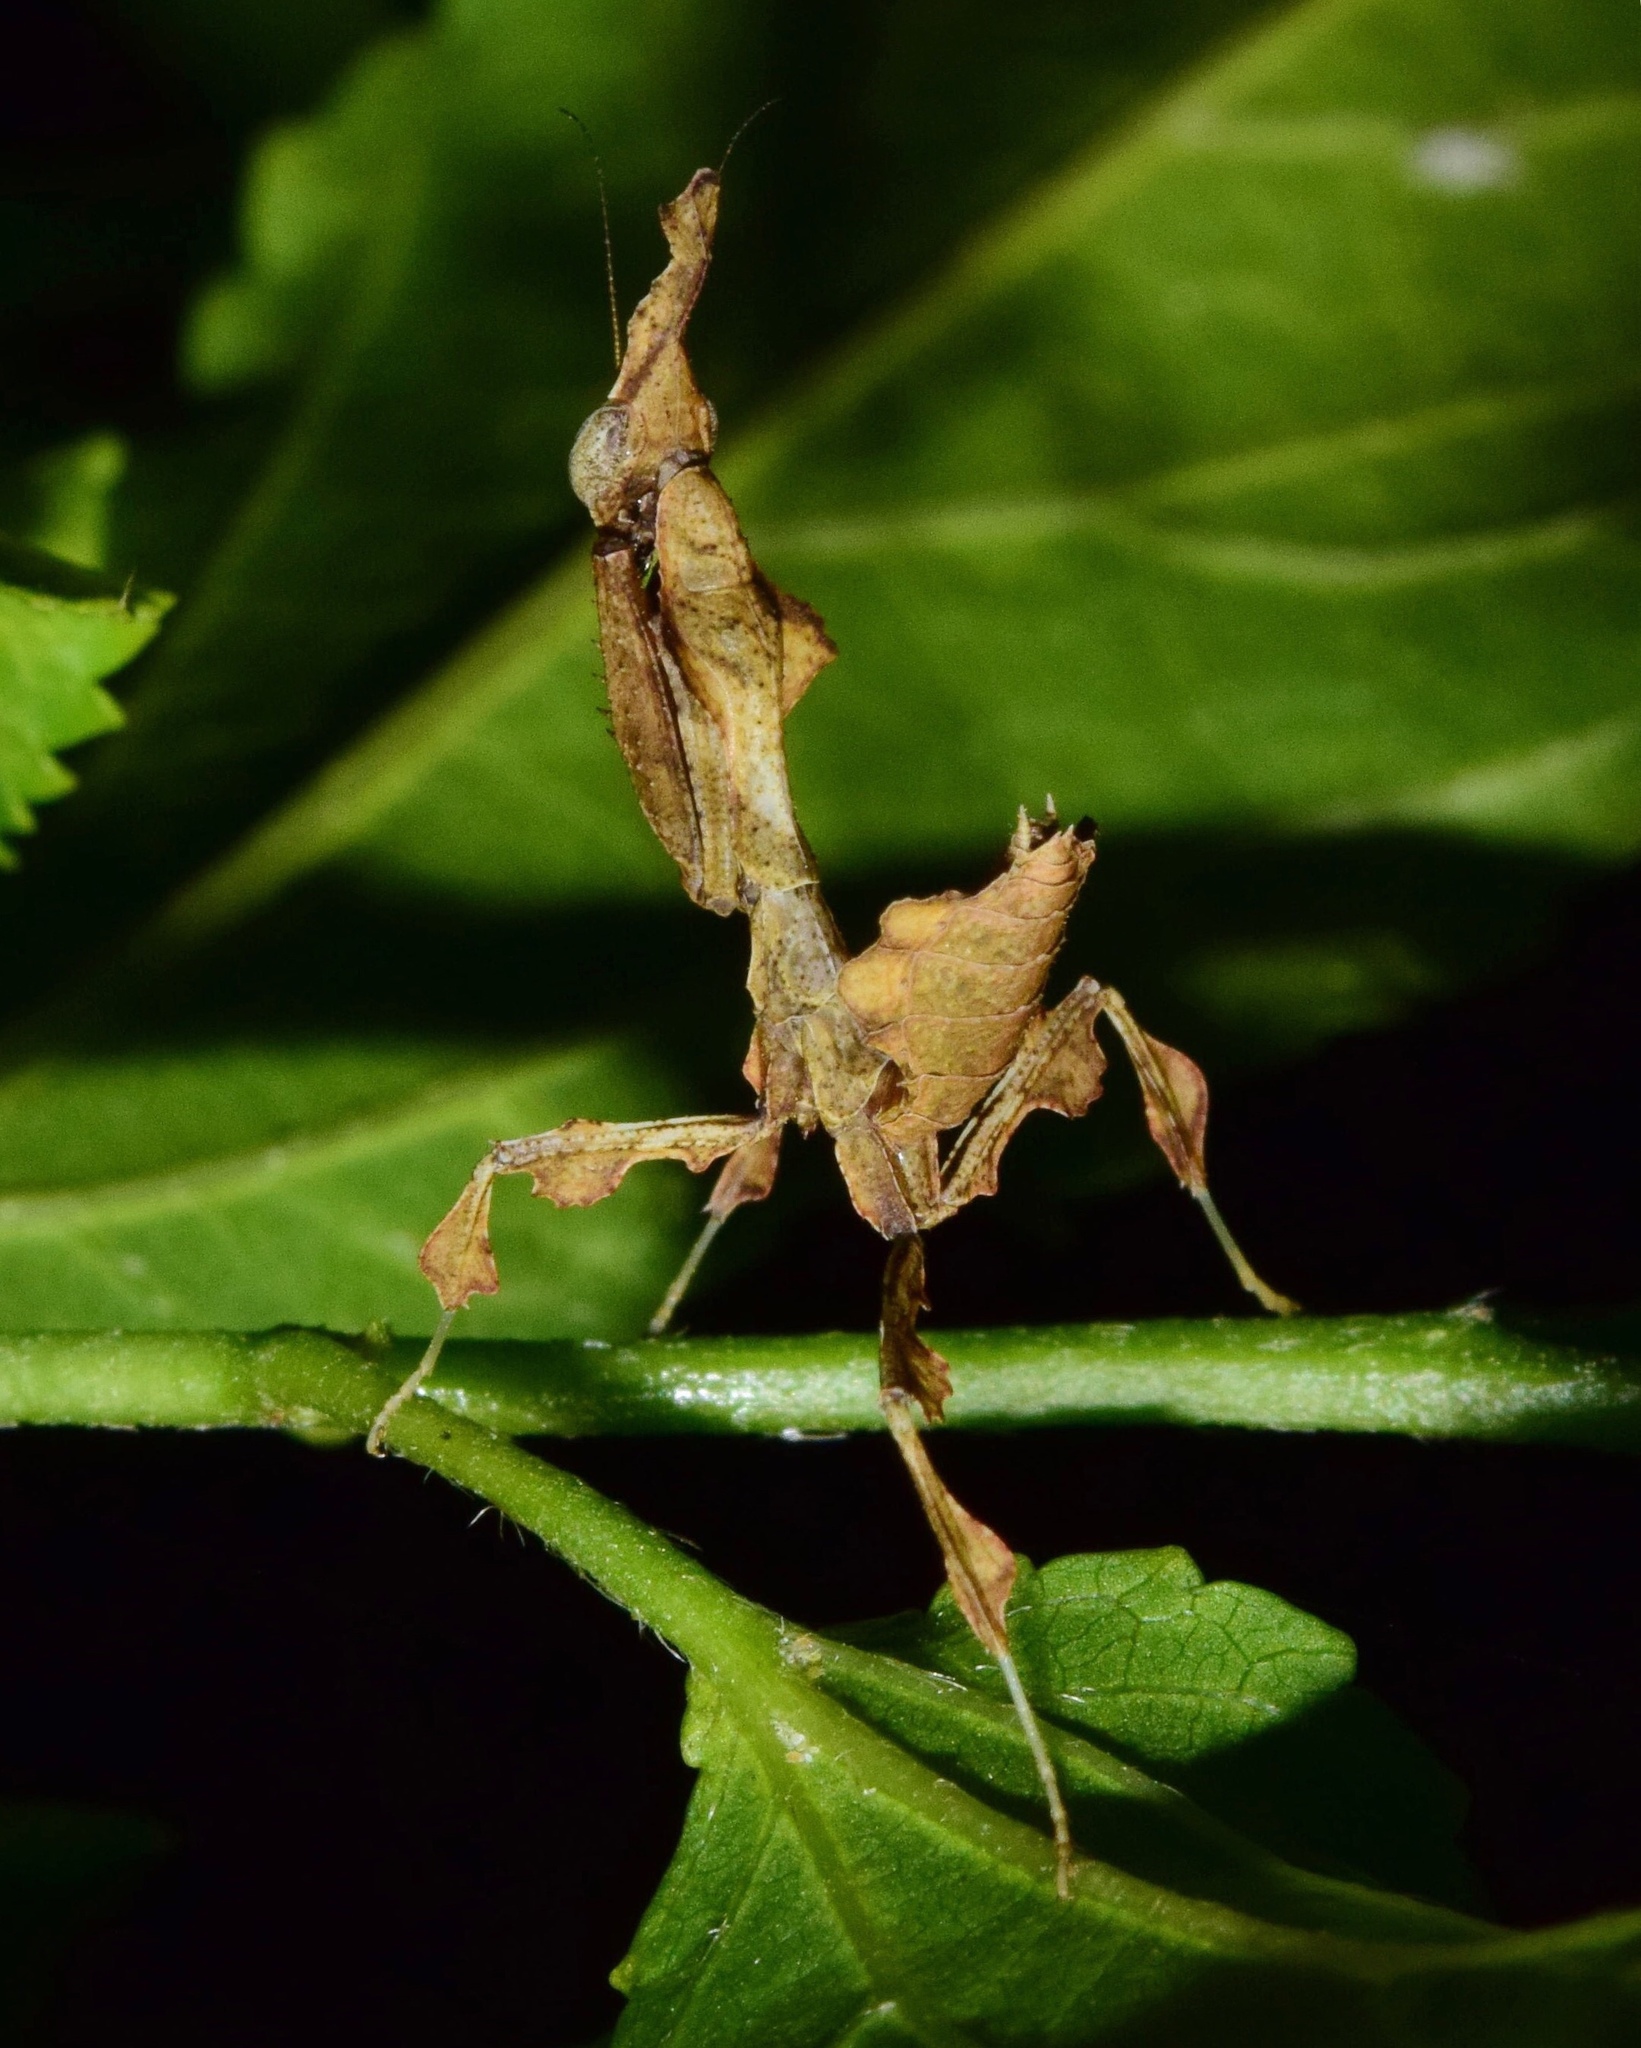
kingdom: Animalia
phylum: Arthropoda
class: Insecta
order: Mantodea
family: Hymenopodidae
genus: Phyllocrania
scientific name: Phyllocrania paradoxa
